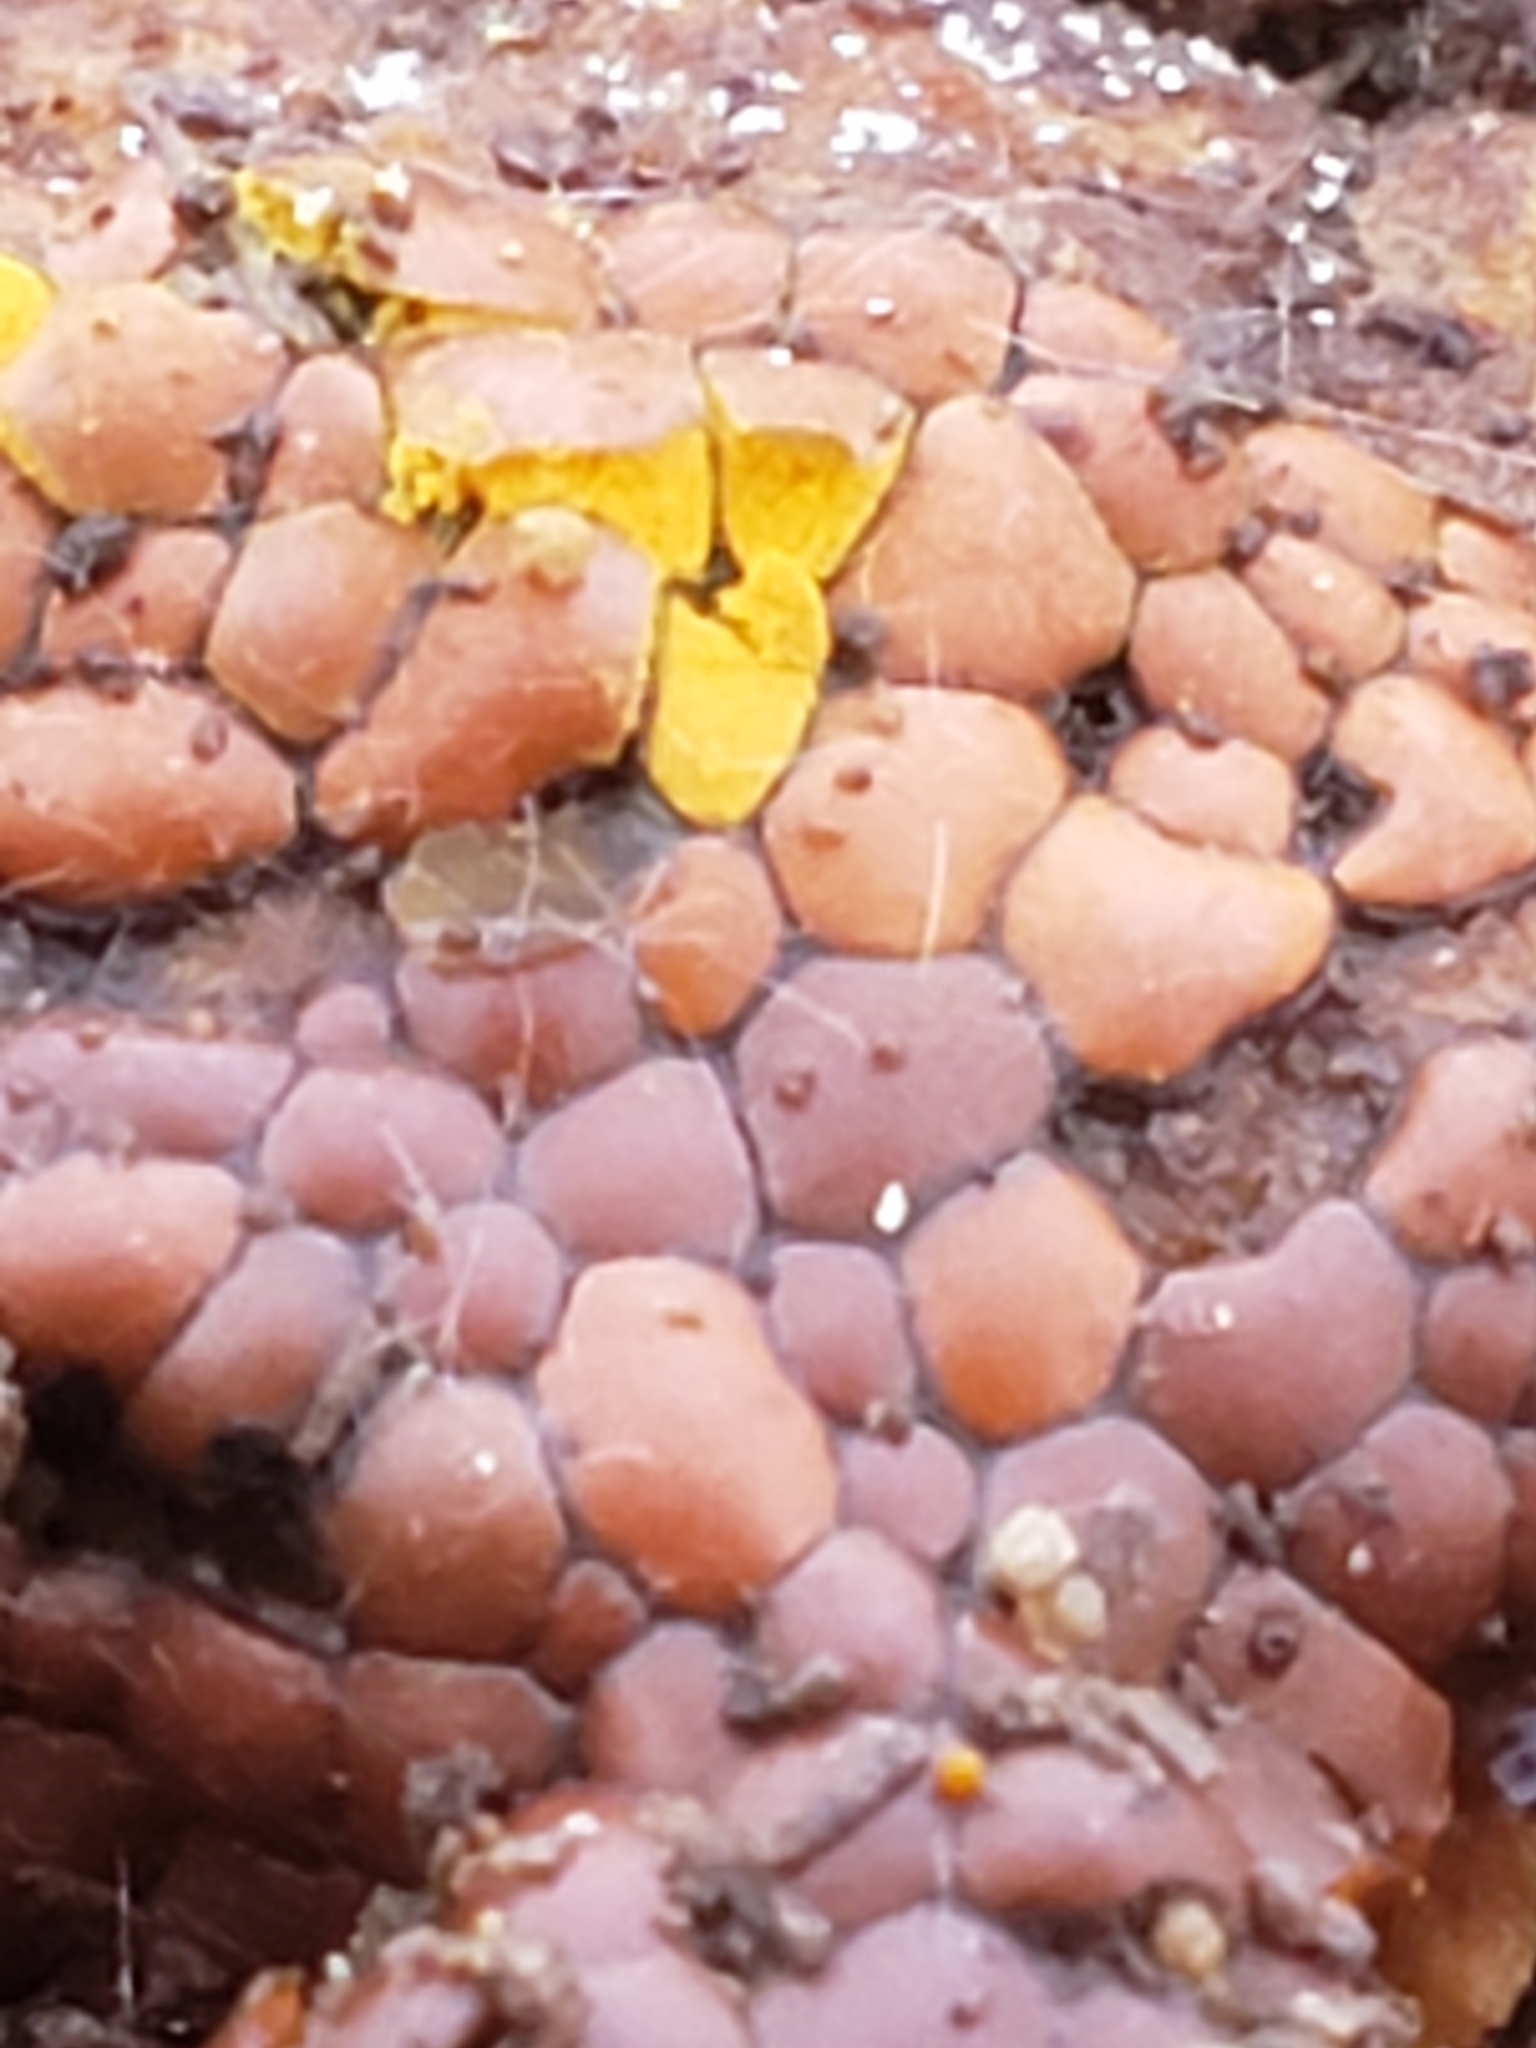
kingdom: Protozoa
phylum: Mycetozoa
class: Myxomycetes
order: Trichiales
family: Trichiaceae
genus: Perichaena
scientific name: Perichaena depressa
